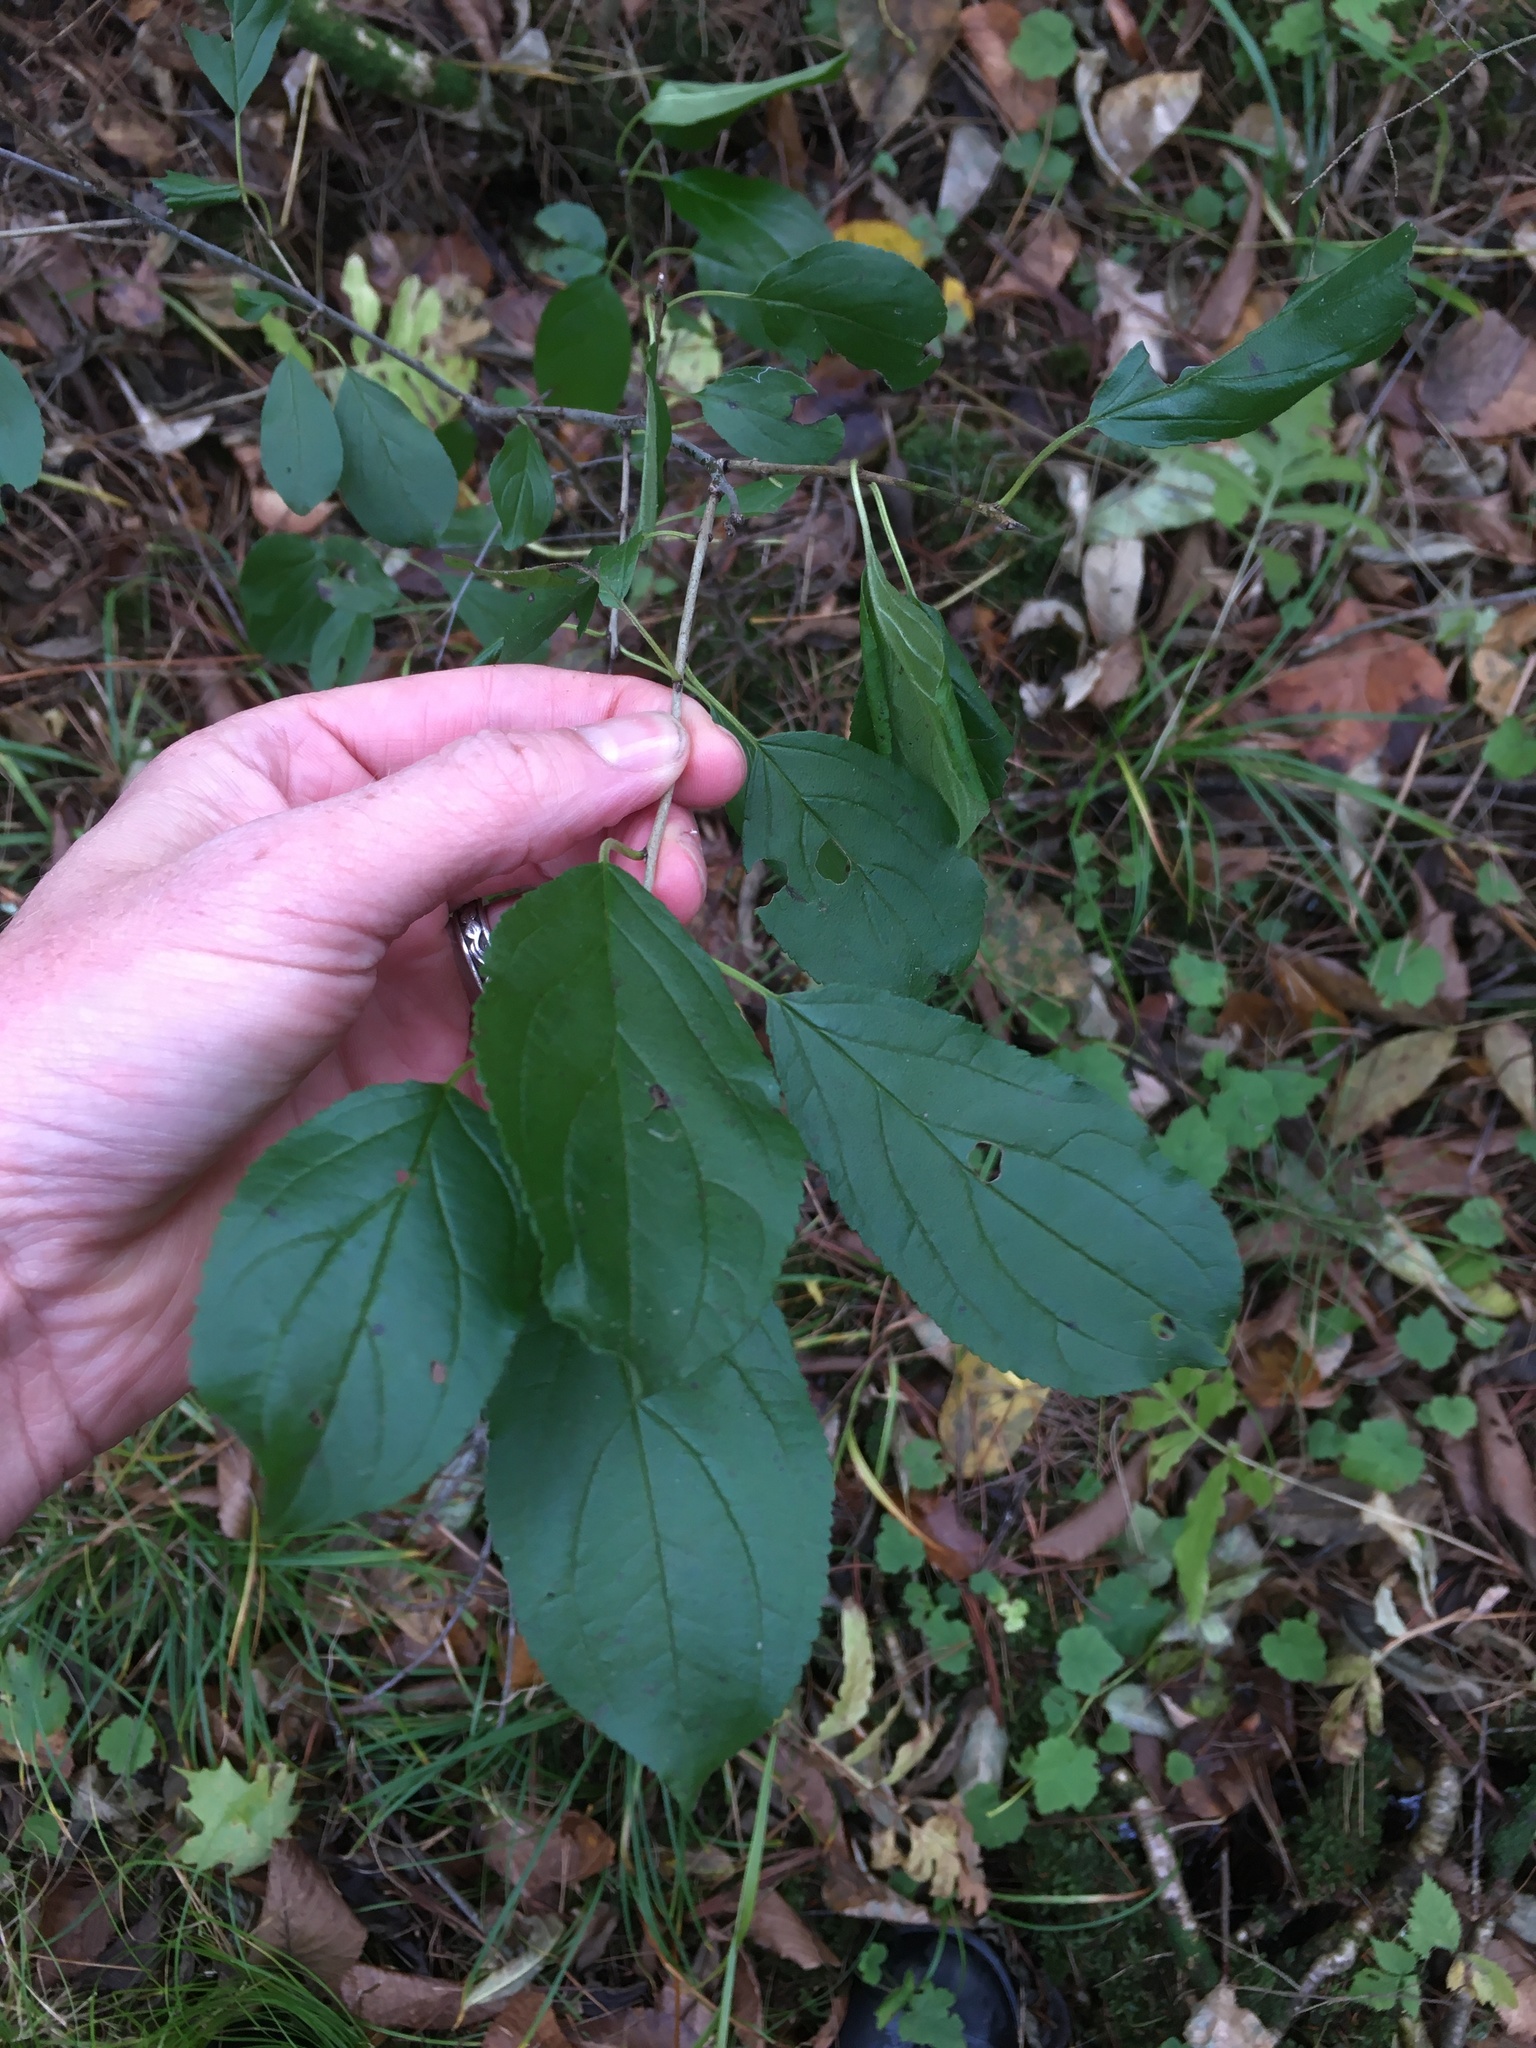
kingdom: Plantae
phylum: Tracheophyta
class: Magnoliopsida
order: Rosales
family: Rhamnaceae
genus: Rhamnus
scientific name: Rhamnus cathartica
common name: Common buckthorn
